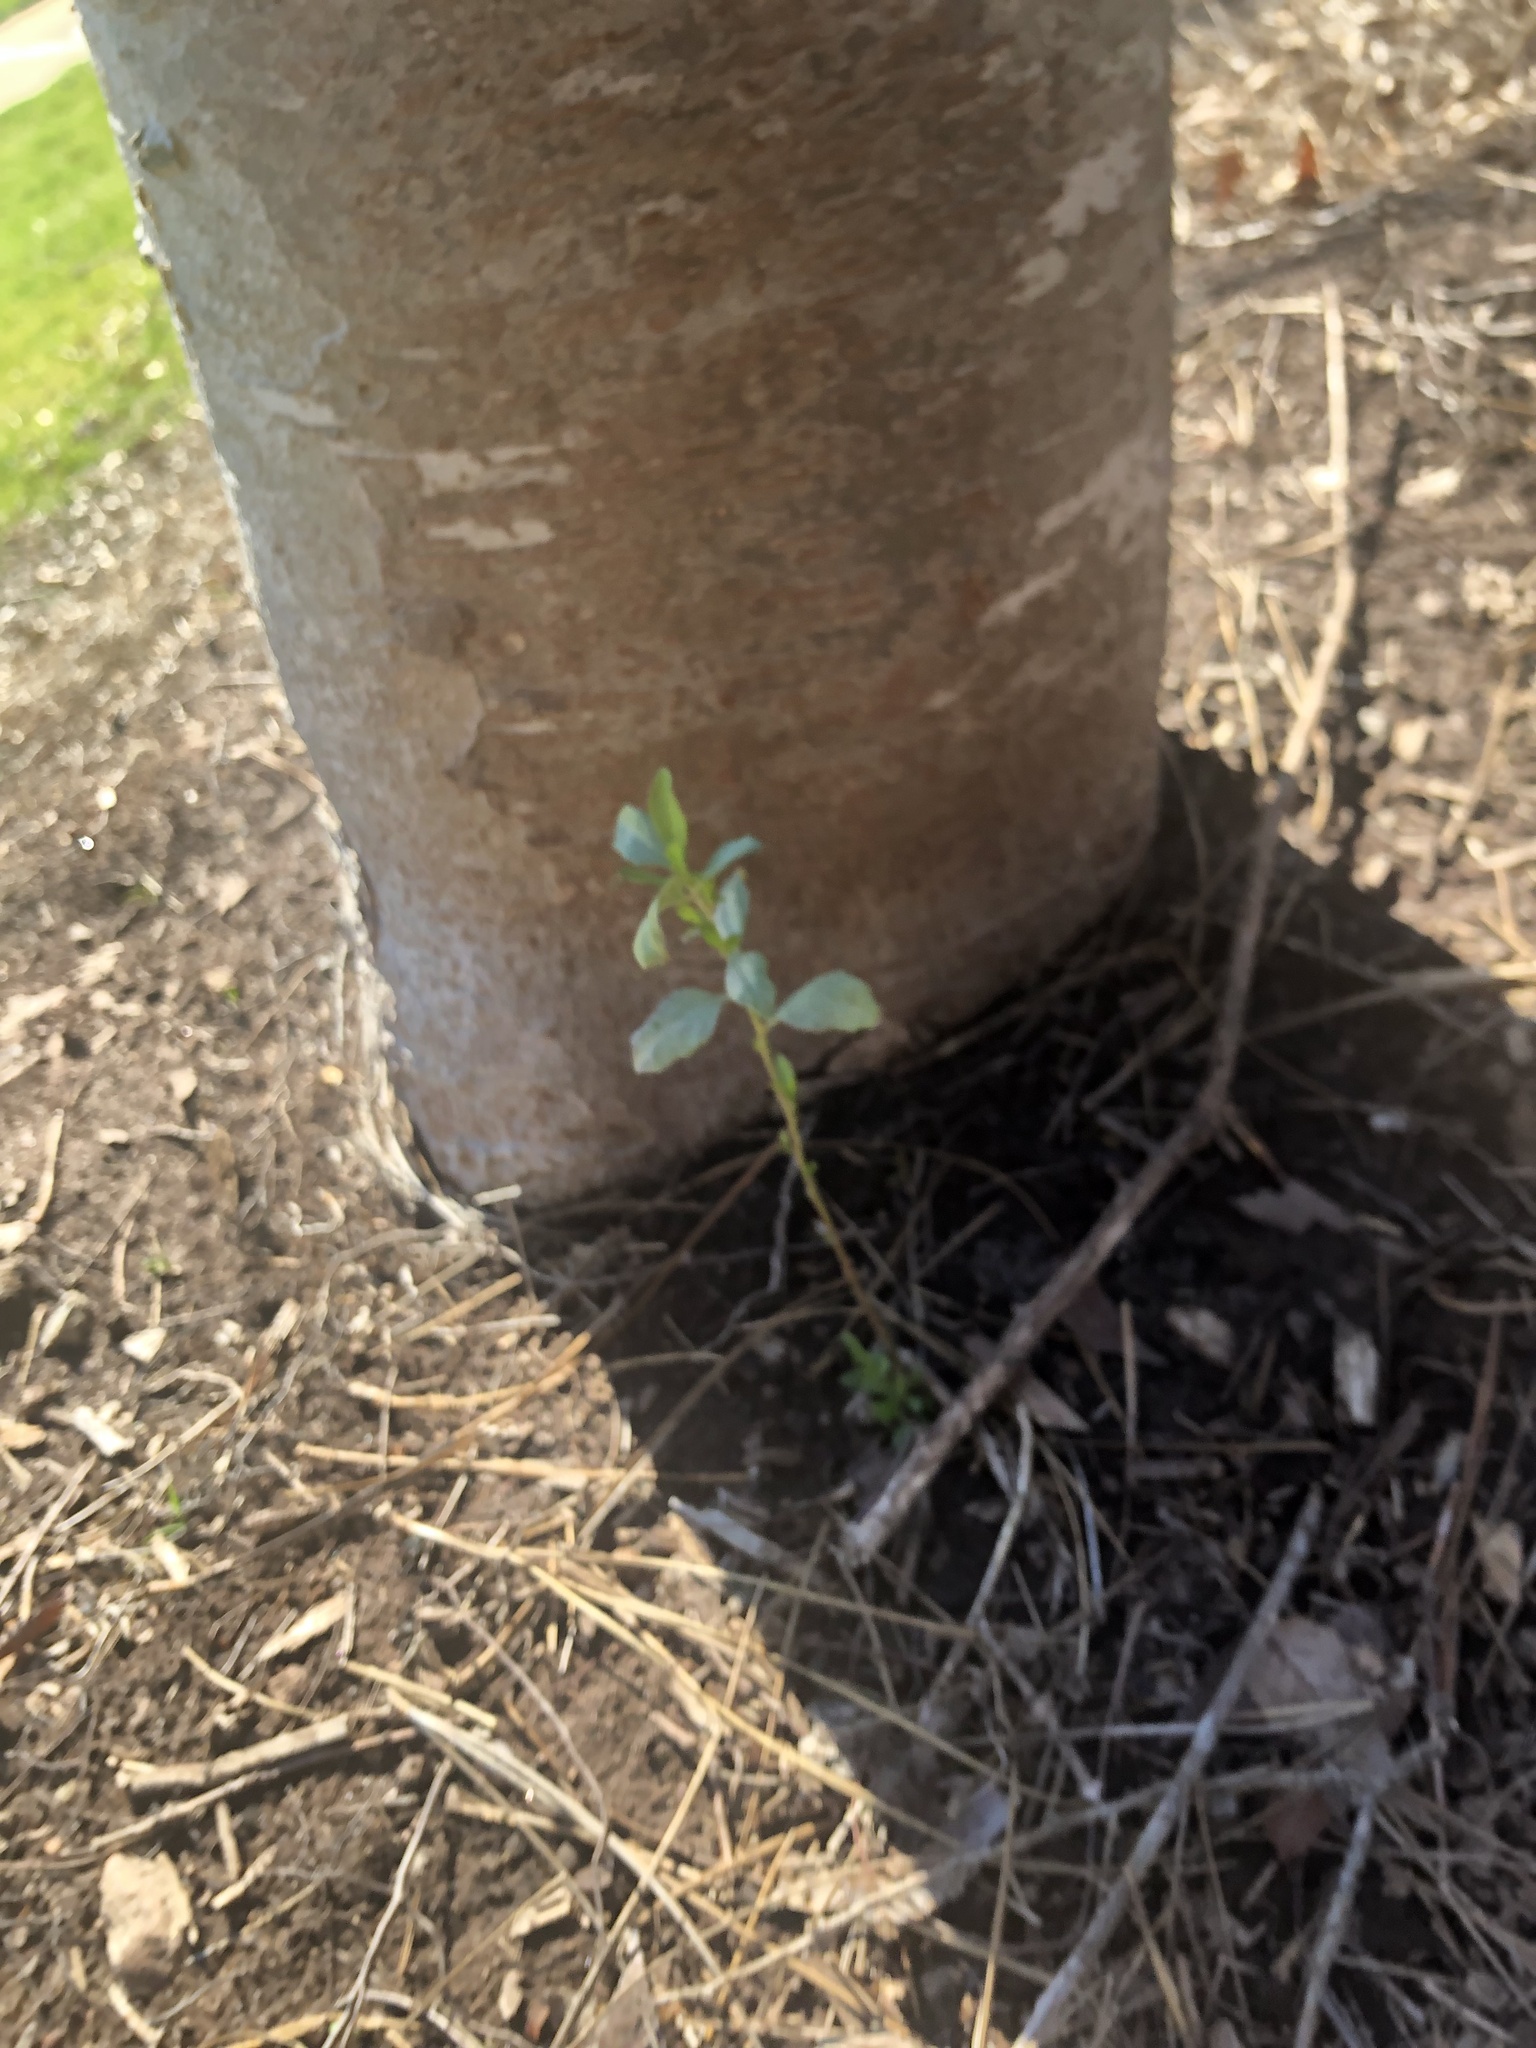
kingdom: Plantae
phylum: Tracheophyta
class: Magnoliopsida
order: Asterales
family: Asteraceae
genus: Baccharis
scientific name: Baccharis halimifolia
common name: Eastern baccharis
